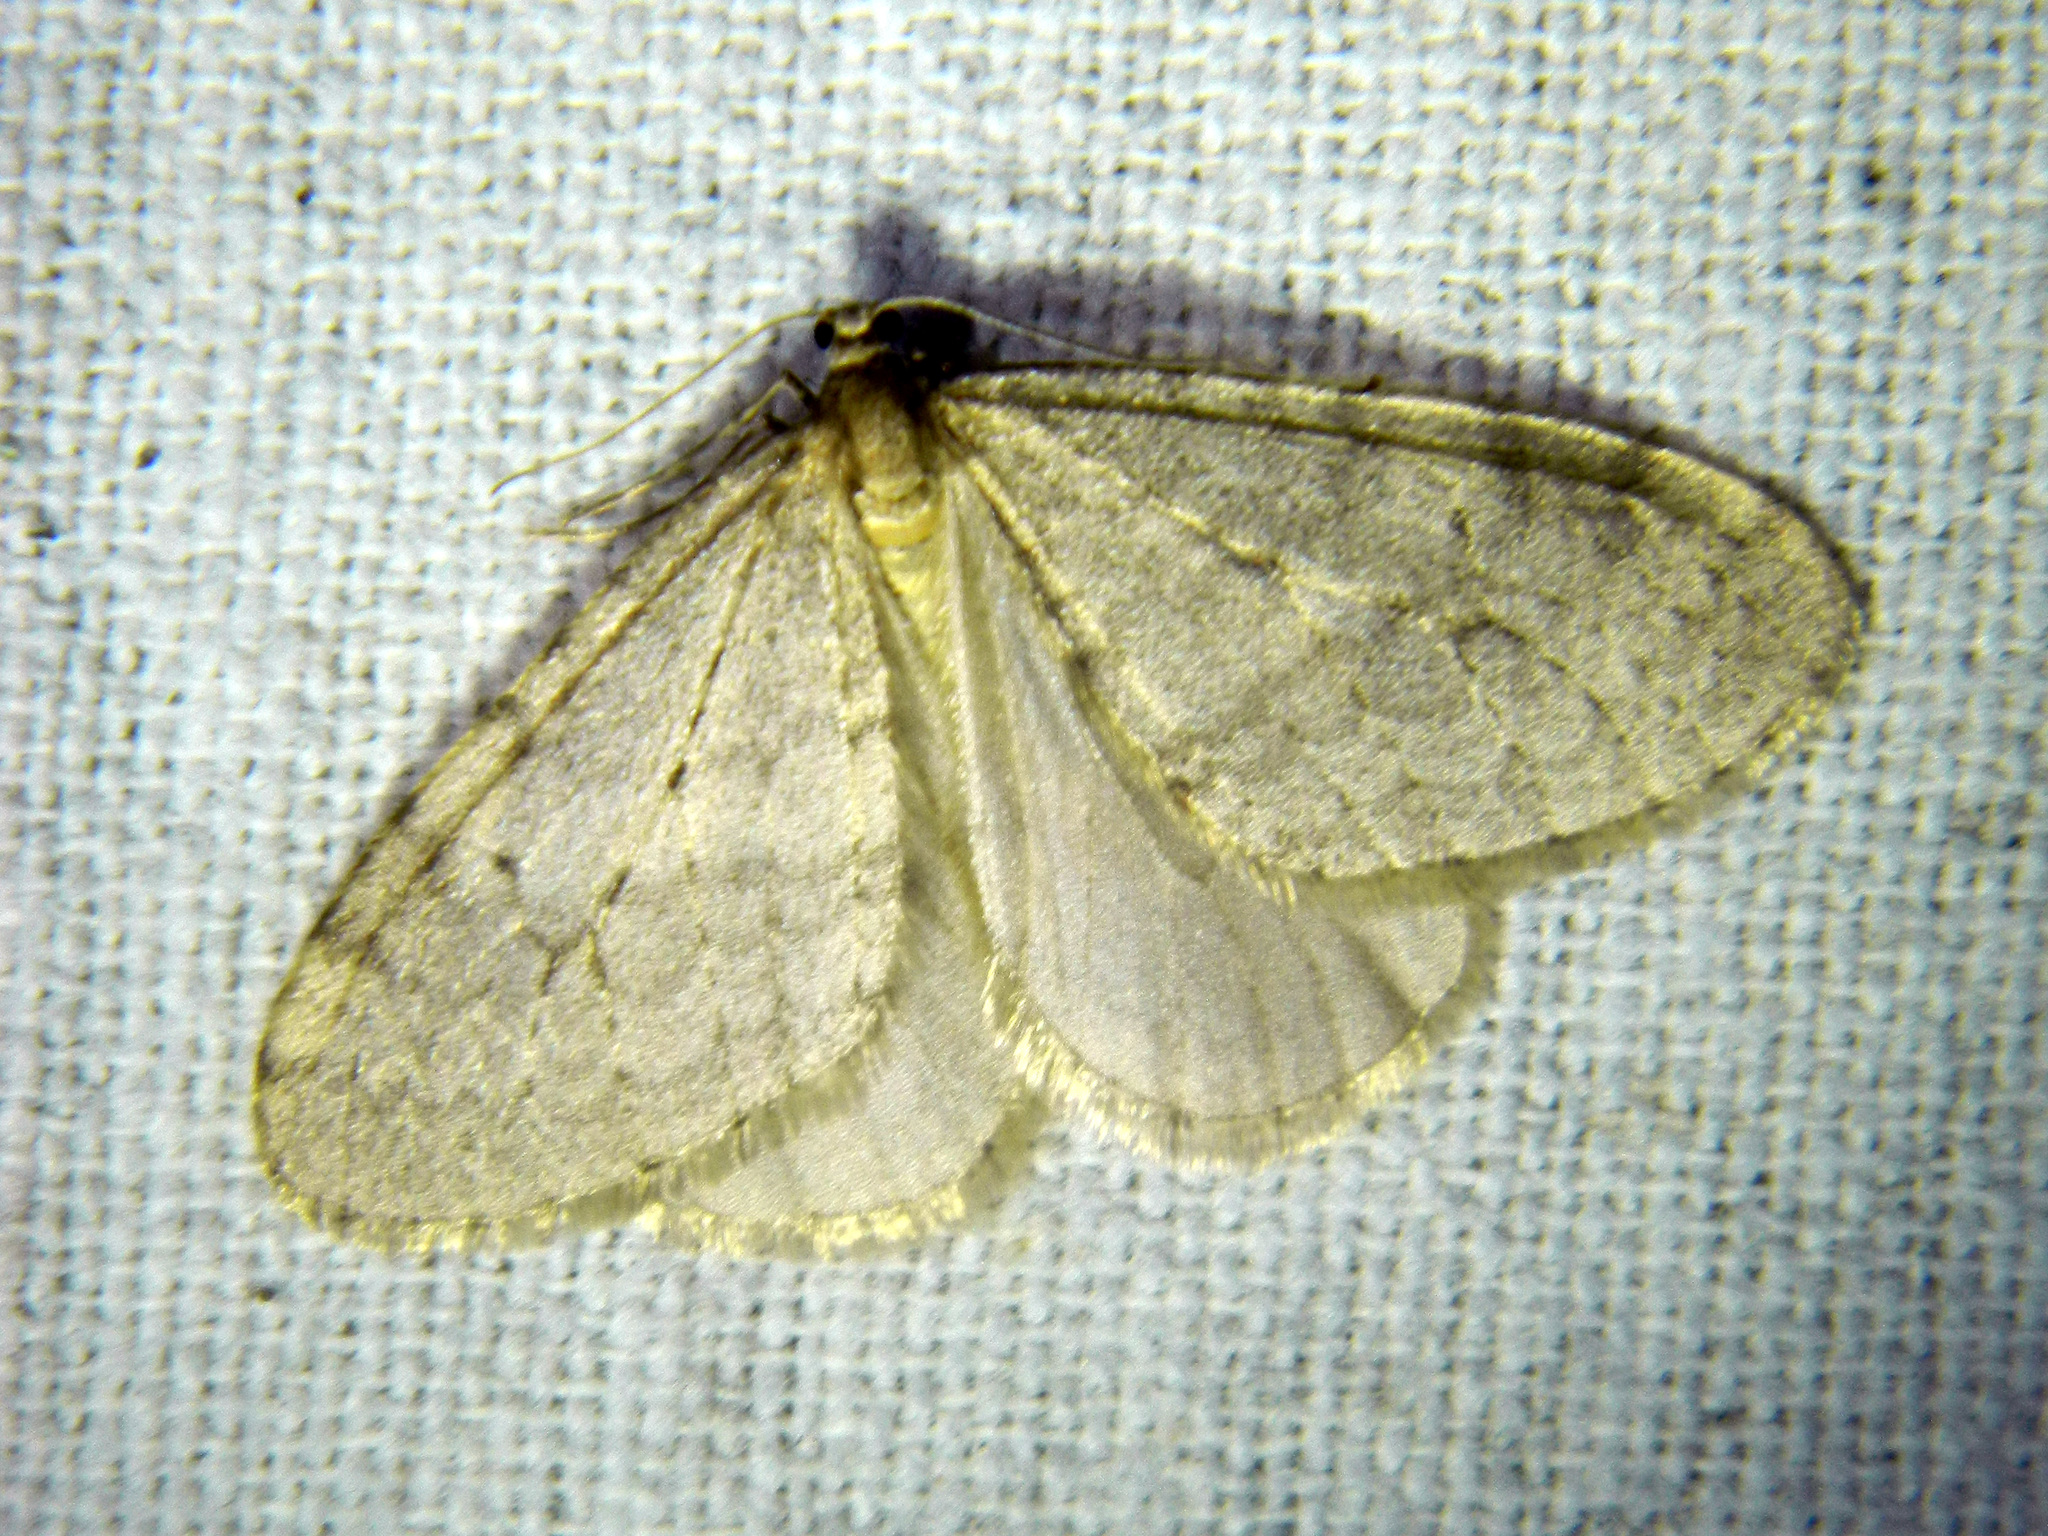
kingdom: Animalia
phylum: Arthropoda
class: Insecta
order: Lepidoptera
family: Geometridae
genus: Operophtera
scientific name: Operophtera bruceata
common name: Bruce spanworm
